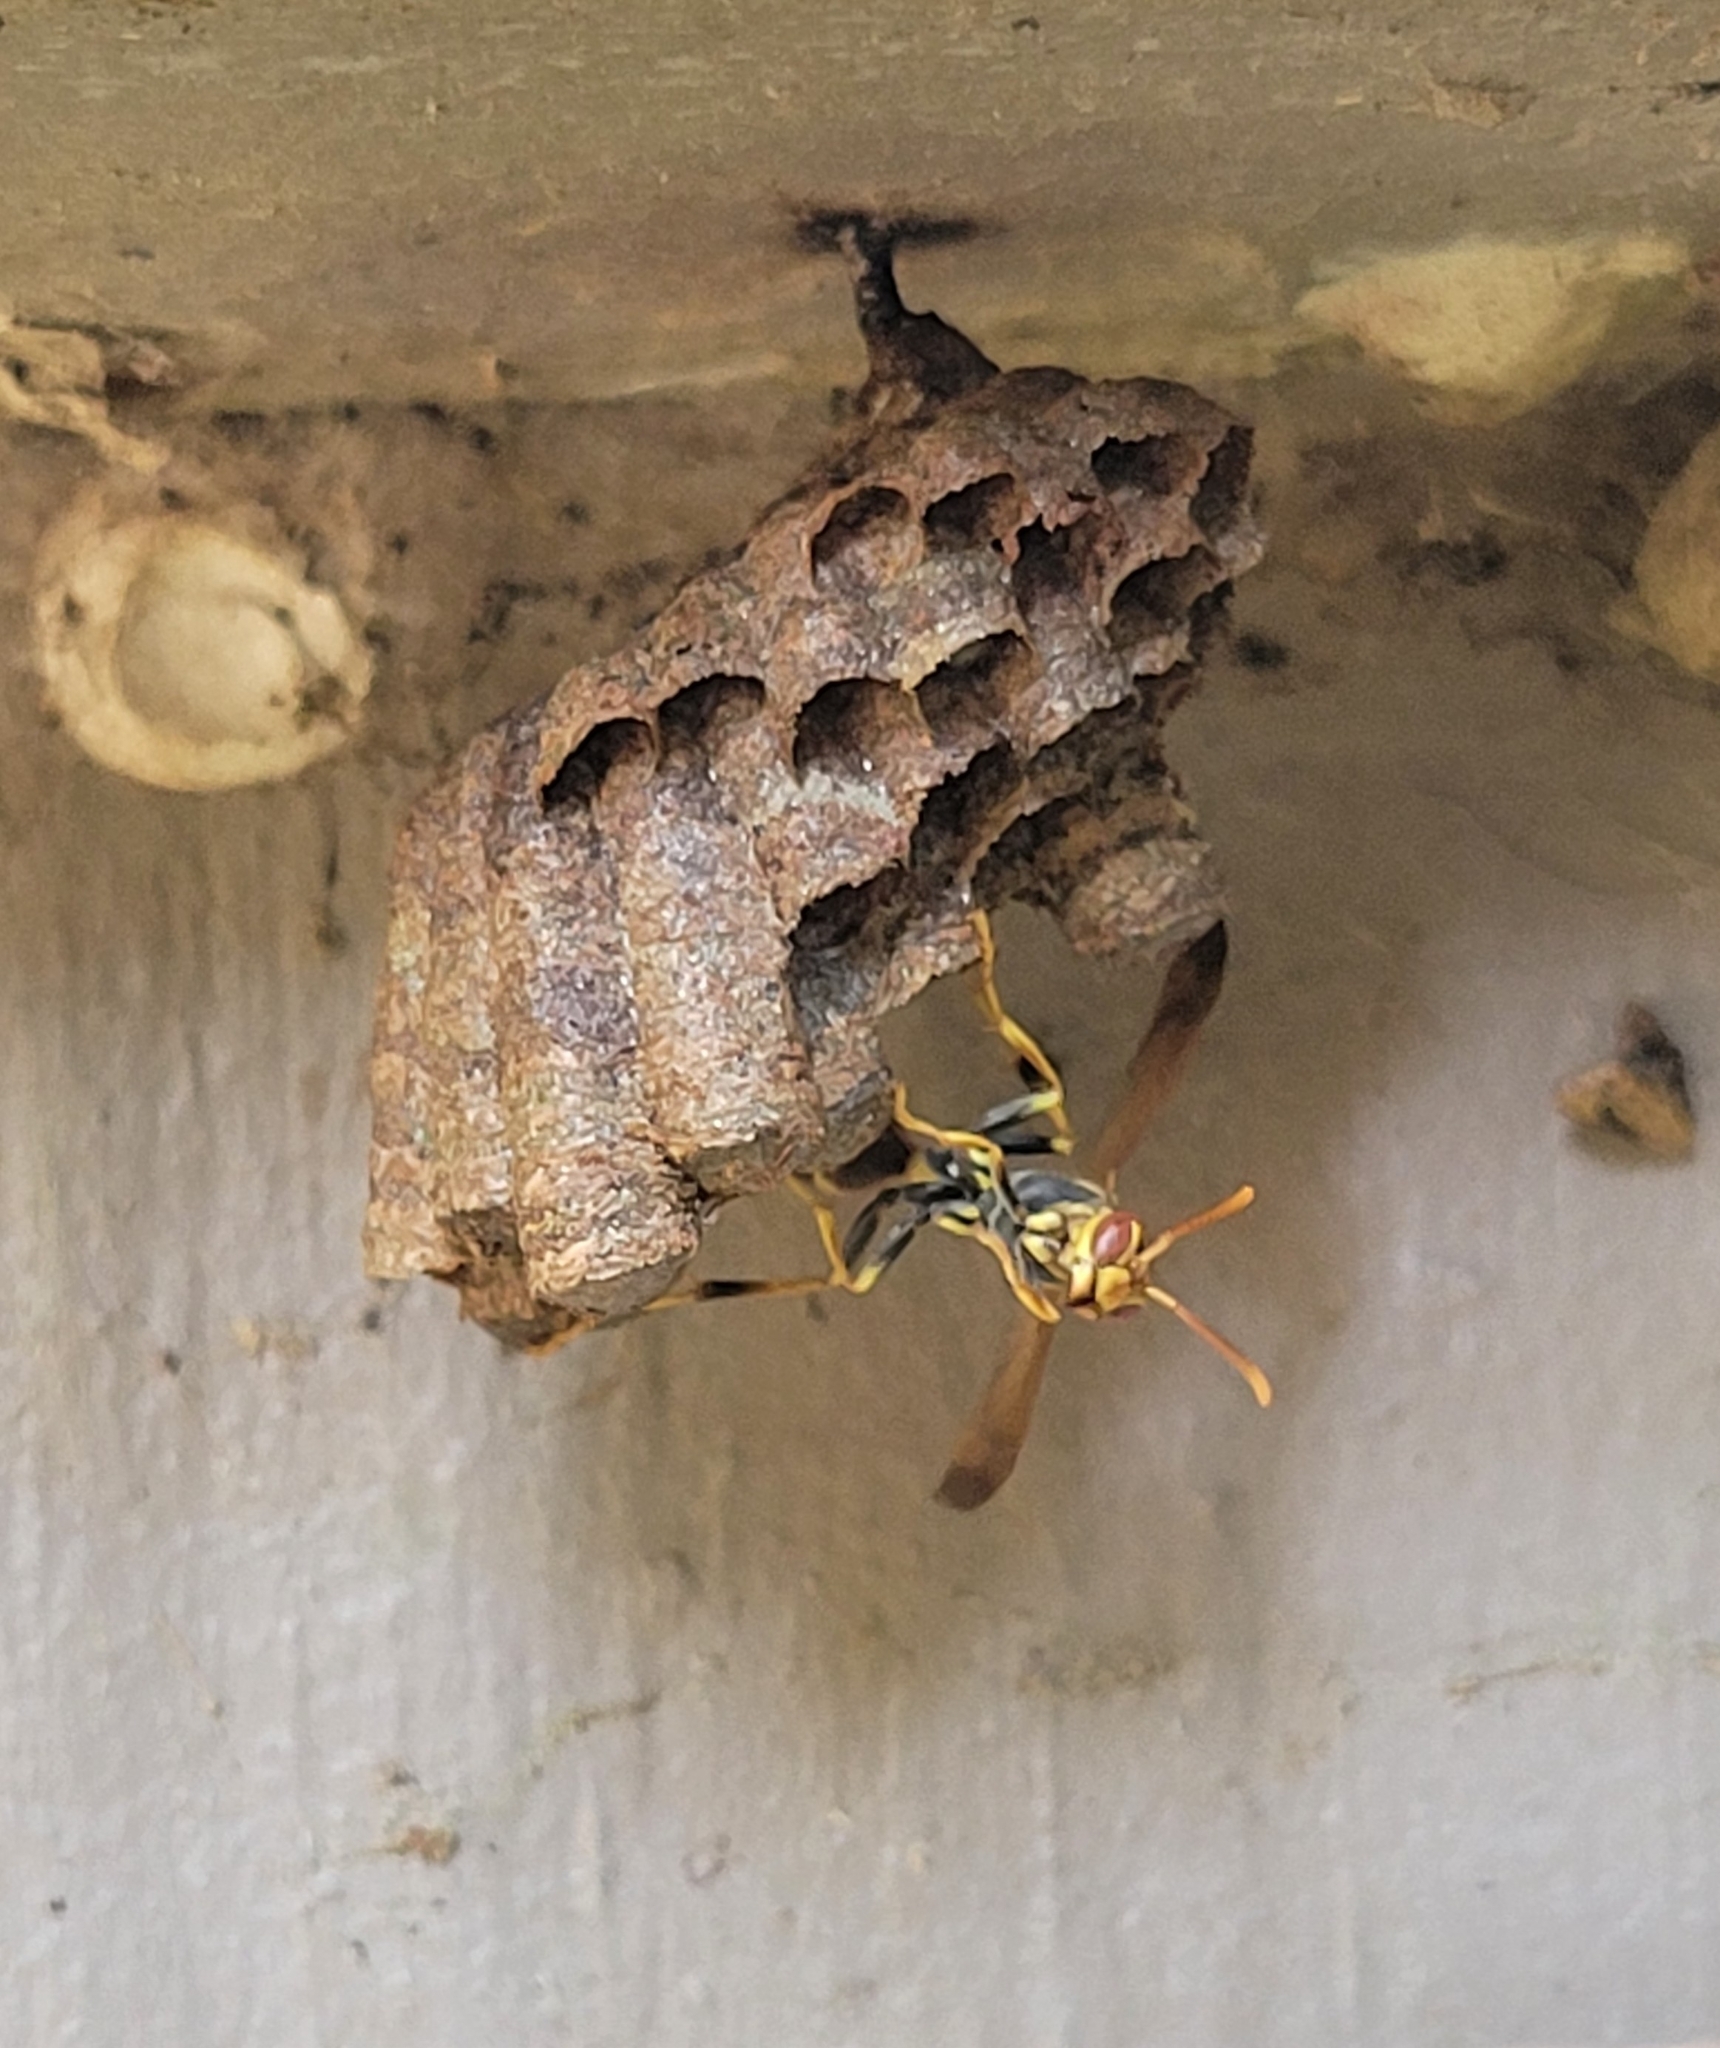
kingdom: Animalia
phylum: Arthropoda
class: Insecta
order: Hymenoptera
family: Vespidae
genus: Mischocyttarus
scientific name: Mischocyttarus mexicanus
